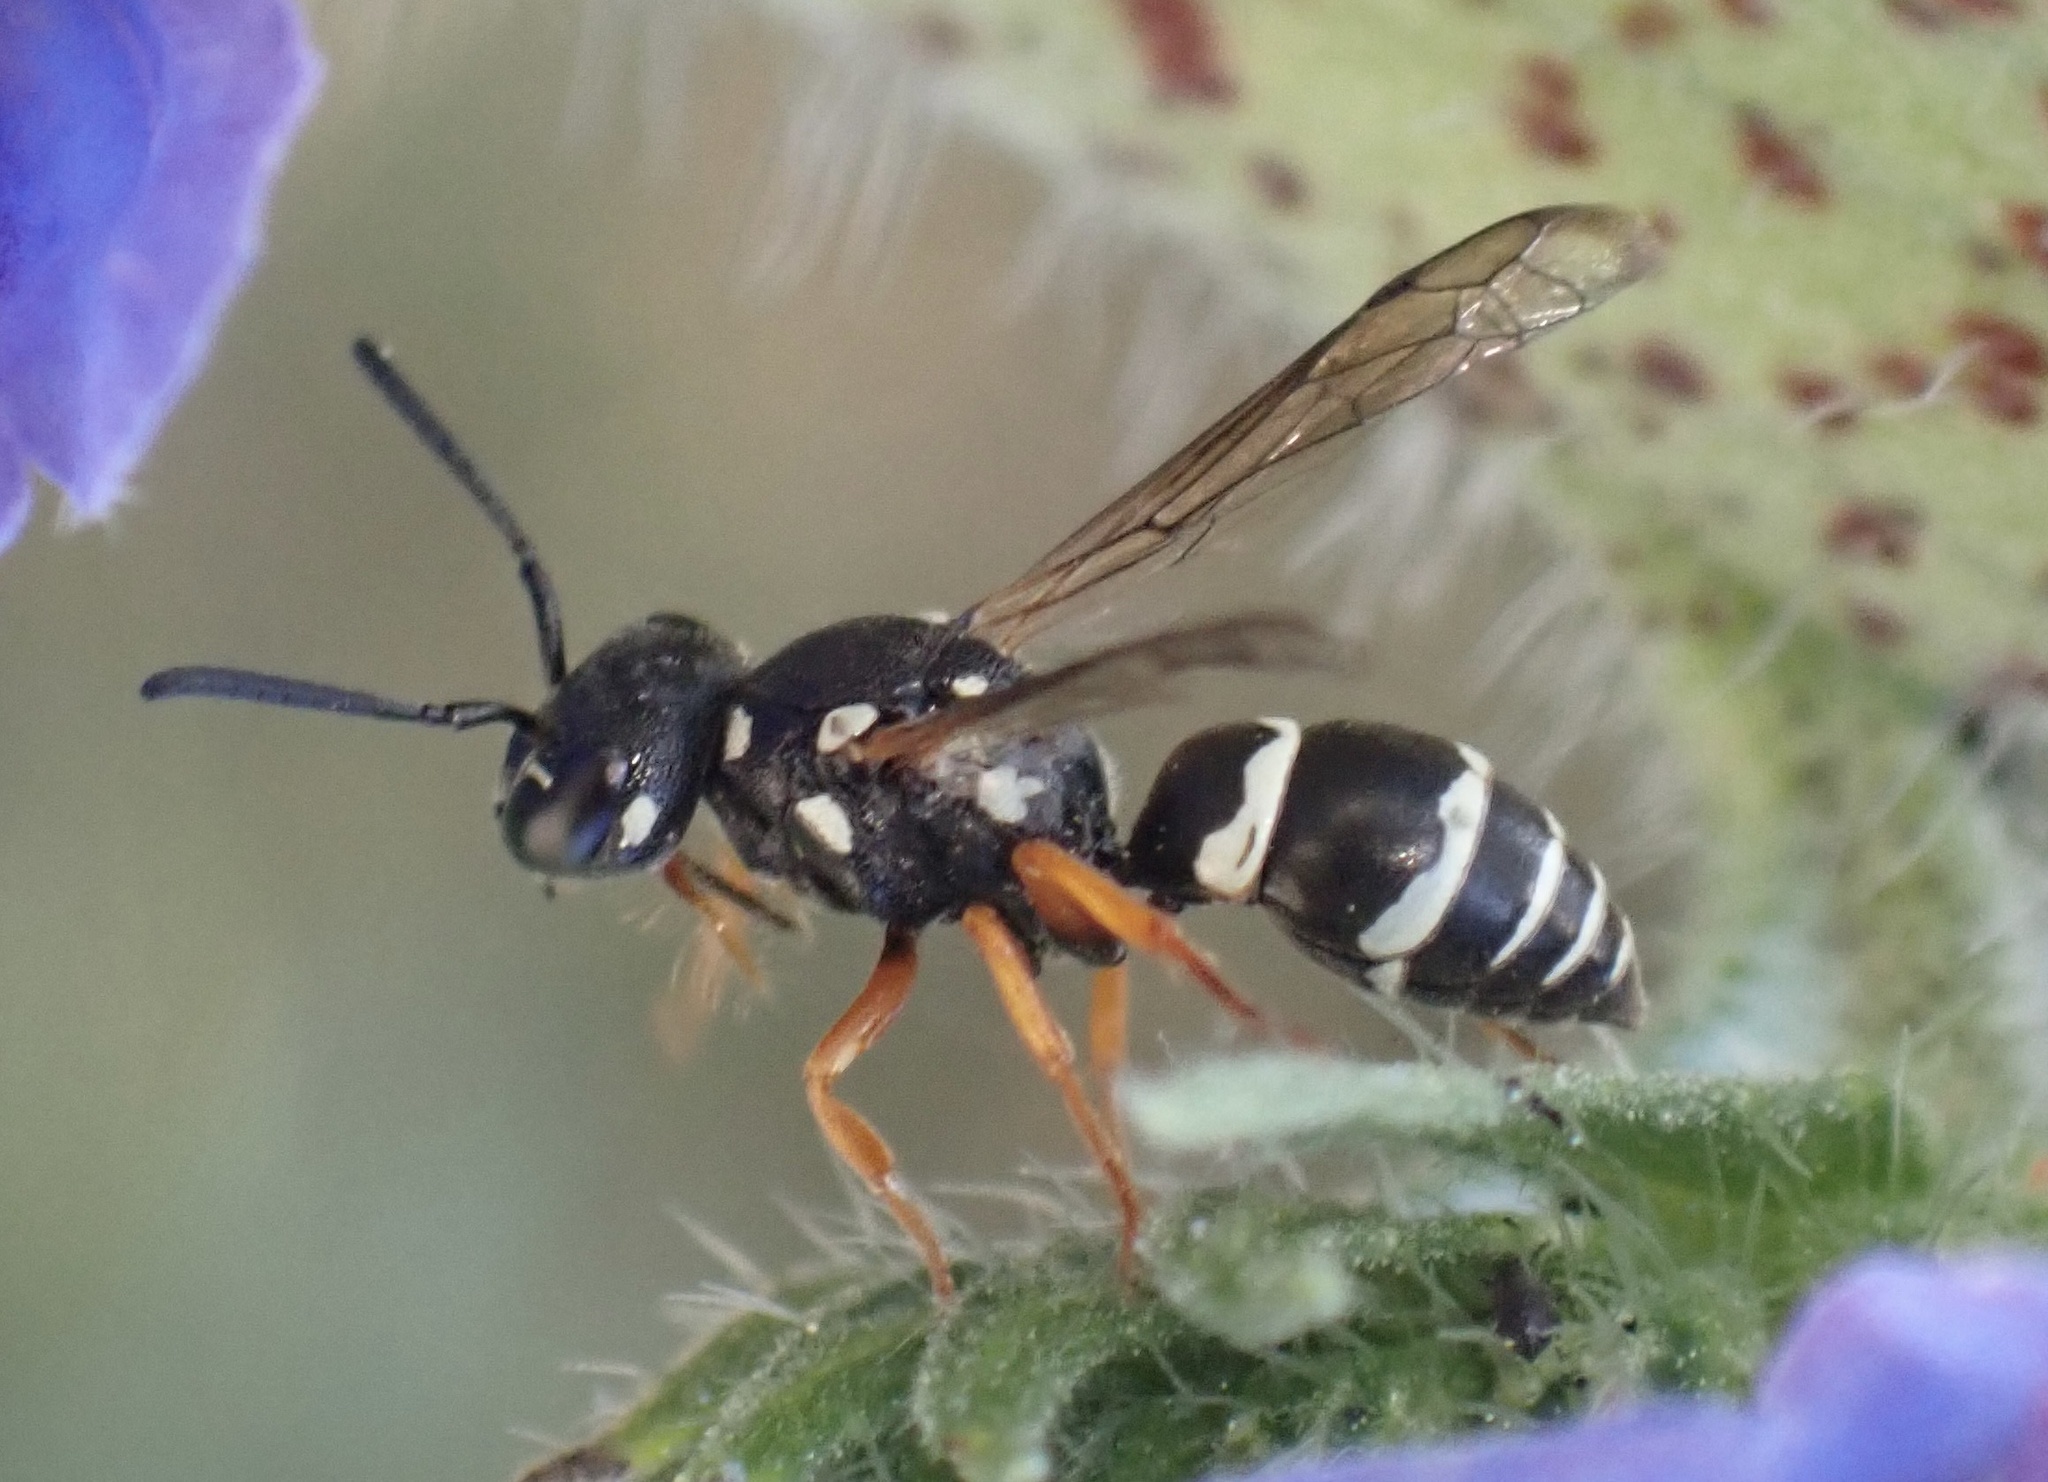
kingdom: Animalia
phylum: Arthropoda
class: Insecta
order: Hymenoptera
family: Eumenidae
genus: Pterocheilus
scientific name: Pterocheilus phaleratus
